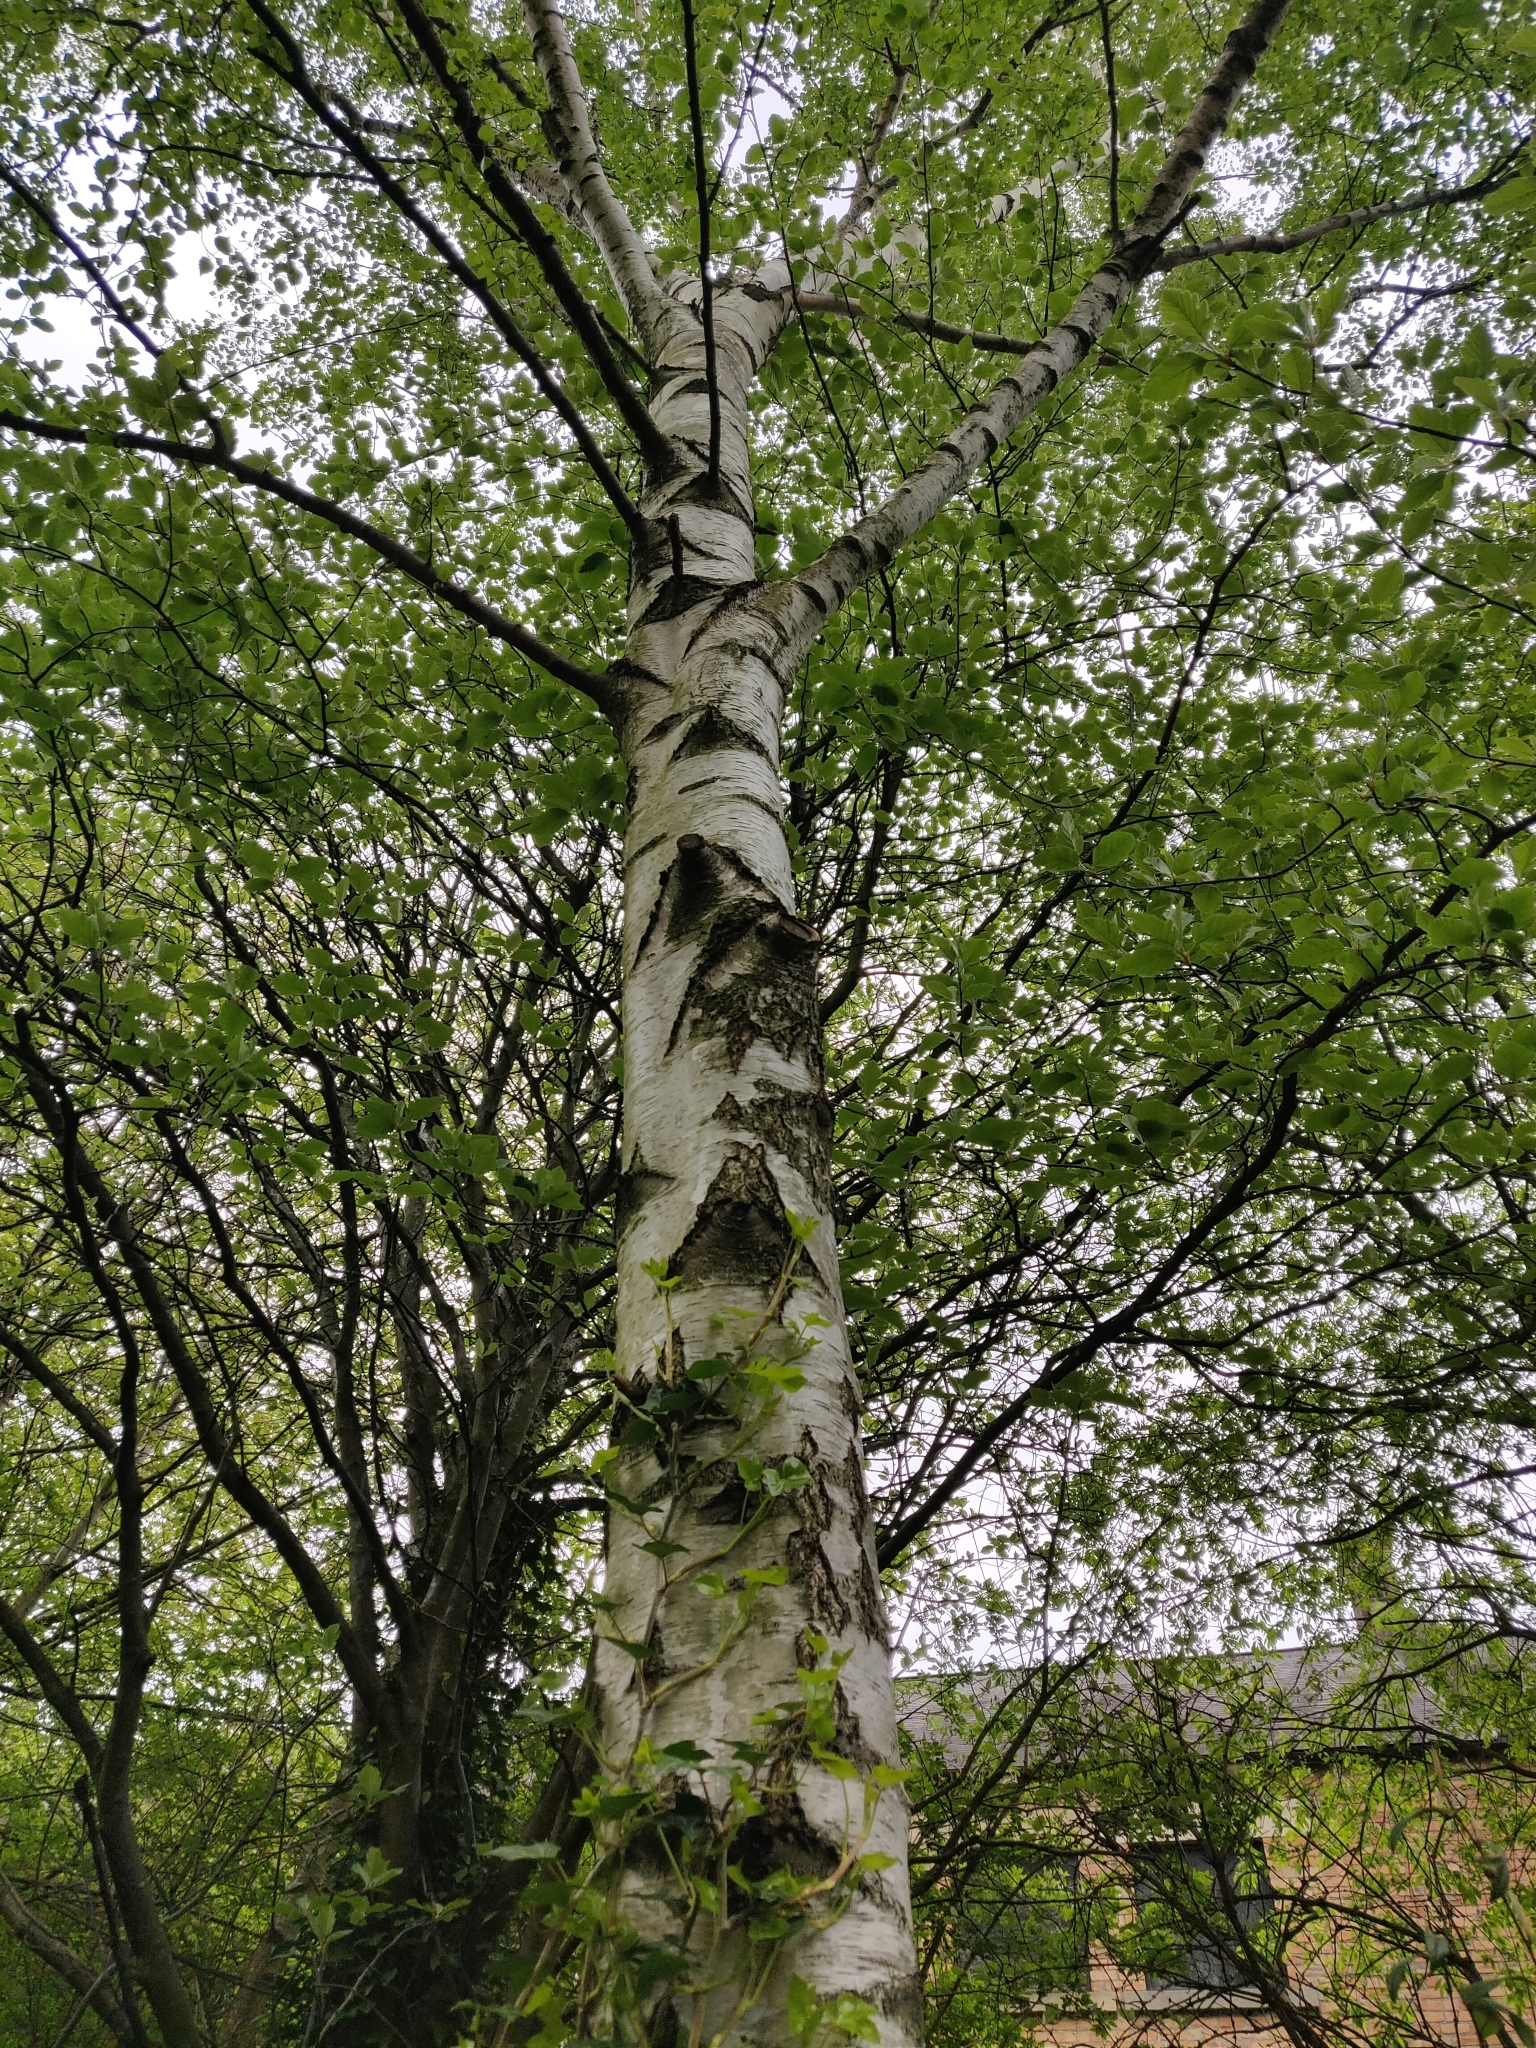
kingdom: Plantae
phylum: Tracheophyta
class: Magnoliopsida
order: Fagales
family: Betulaceae
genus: Betula
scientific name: Betula pendula
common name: Silver birch
